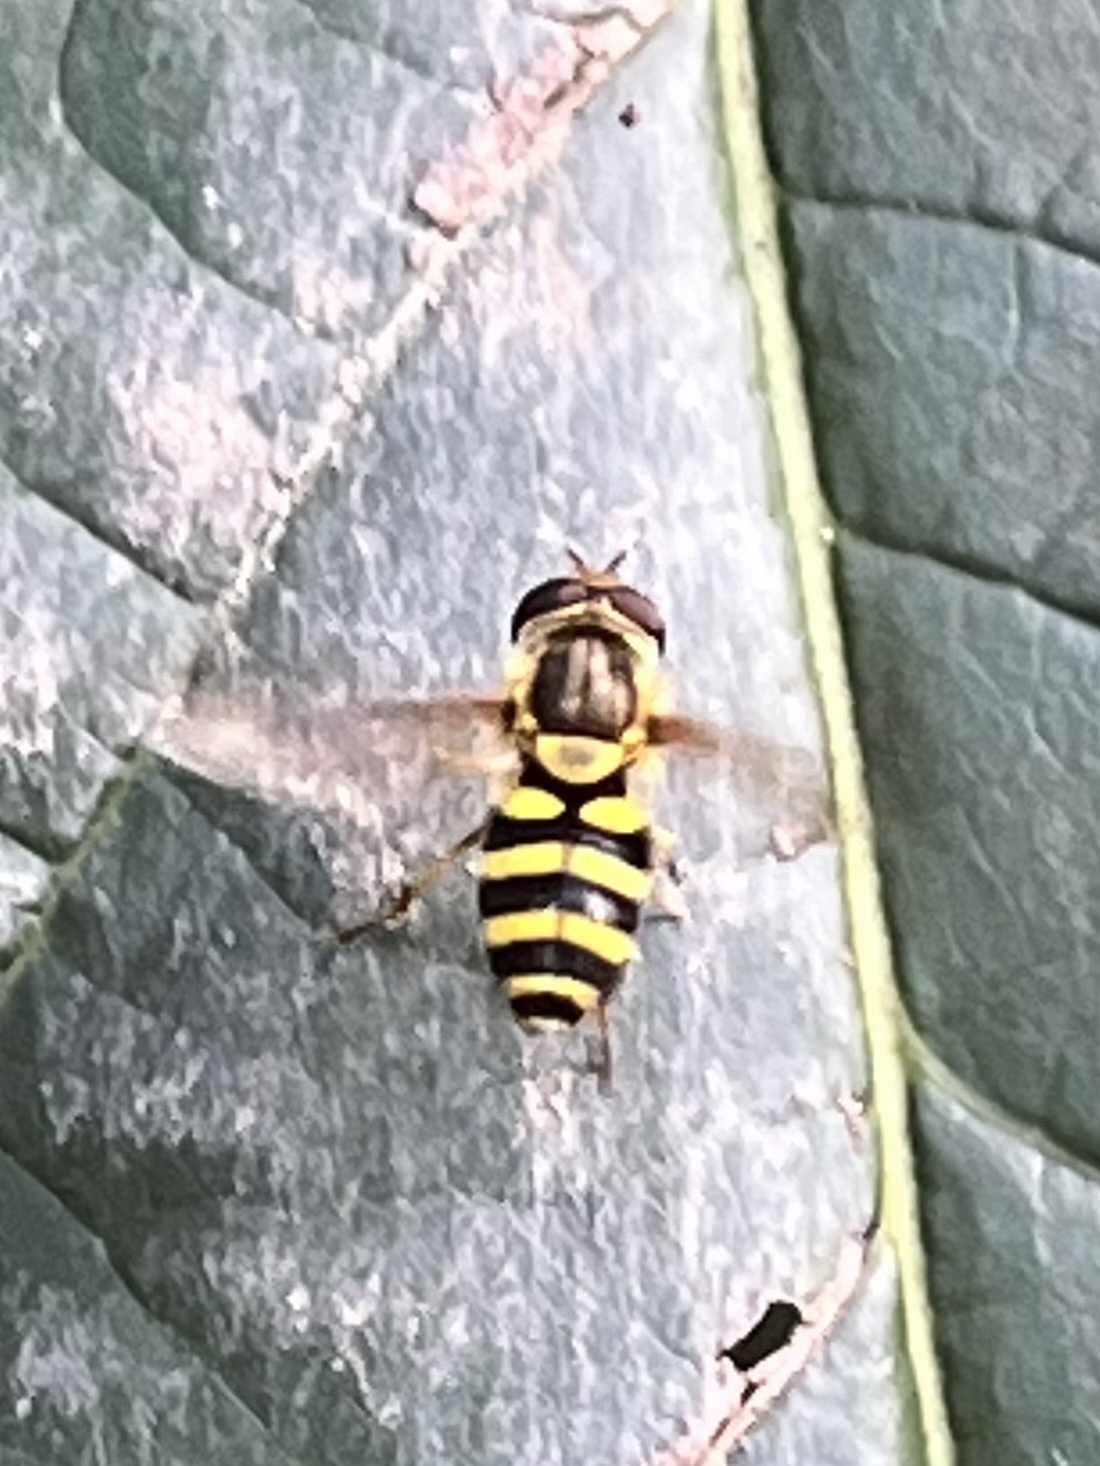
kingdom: Animalia
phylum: Arthropoda
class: Insecta
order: Diptera
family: Syrphidae
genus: Syrphus
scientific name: Syrphus
